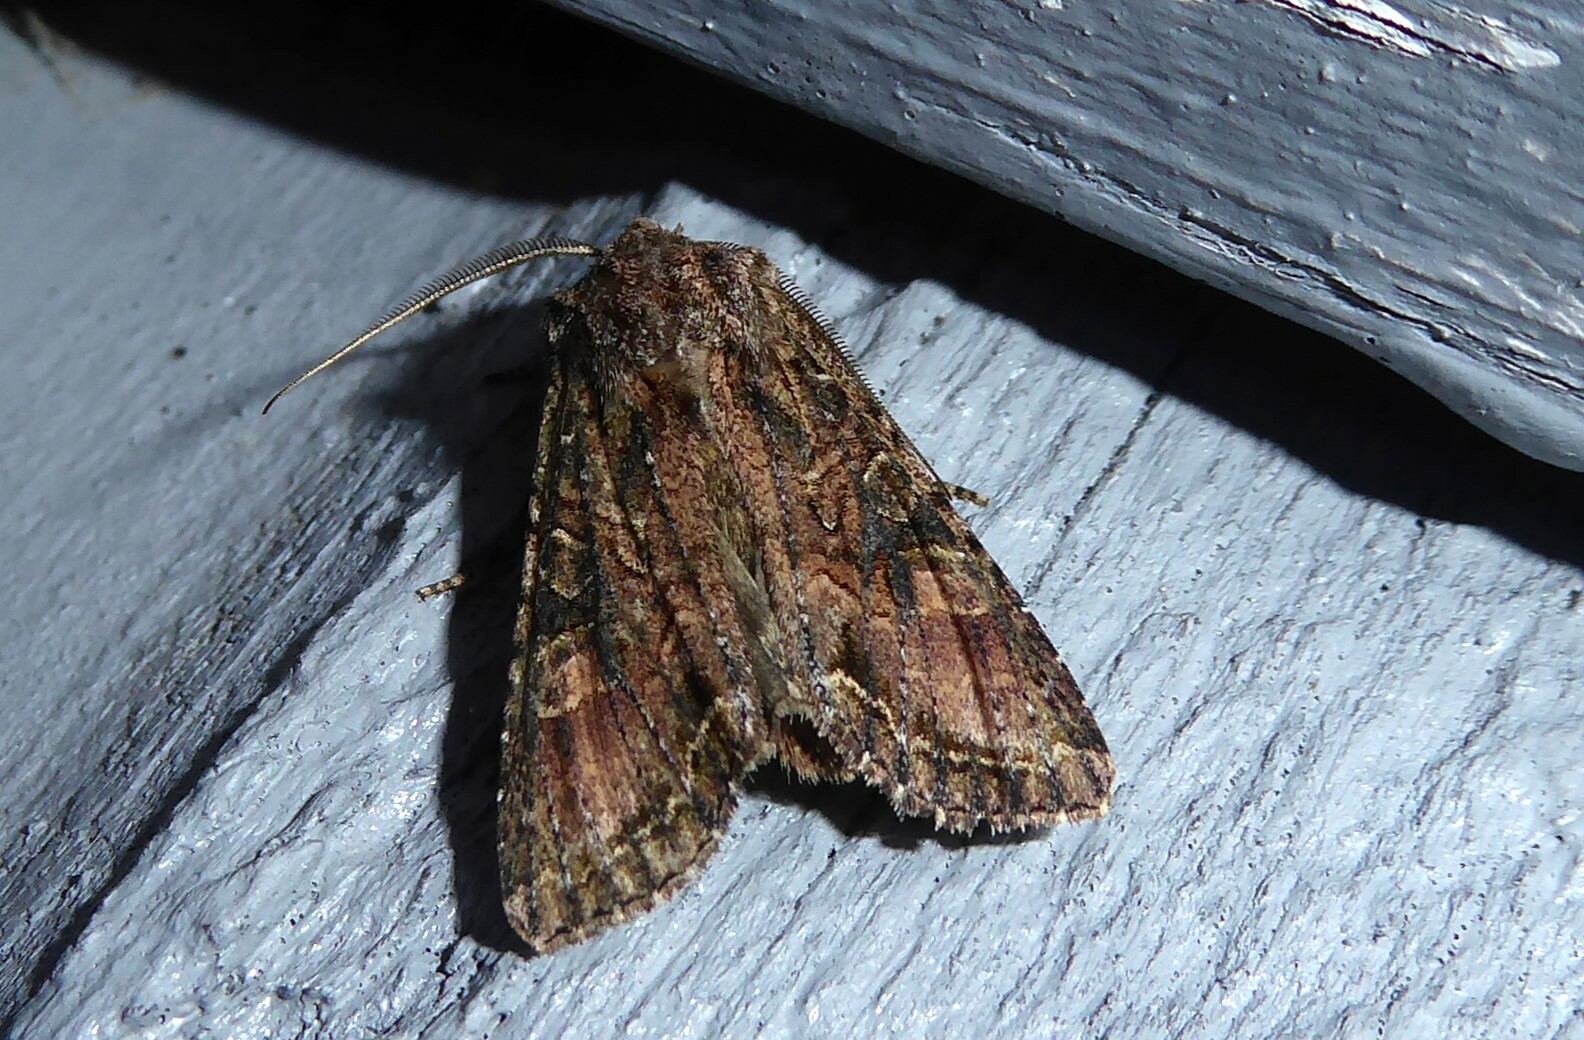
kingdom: Animalia
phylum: Arthropoda
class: Insecta
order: Lepidoptera
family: Noctuidae
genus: Ichneutica
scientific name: Ichneutica mutans
